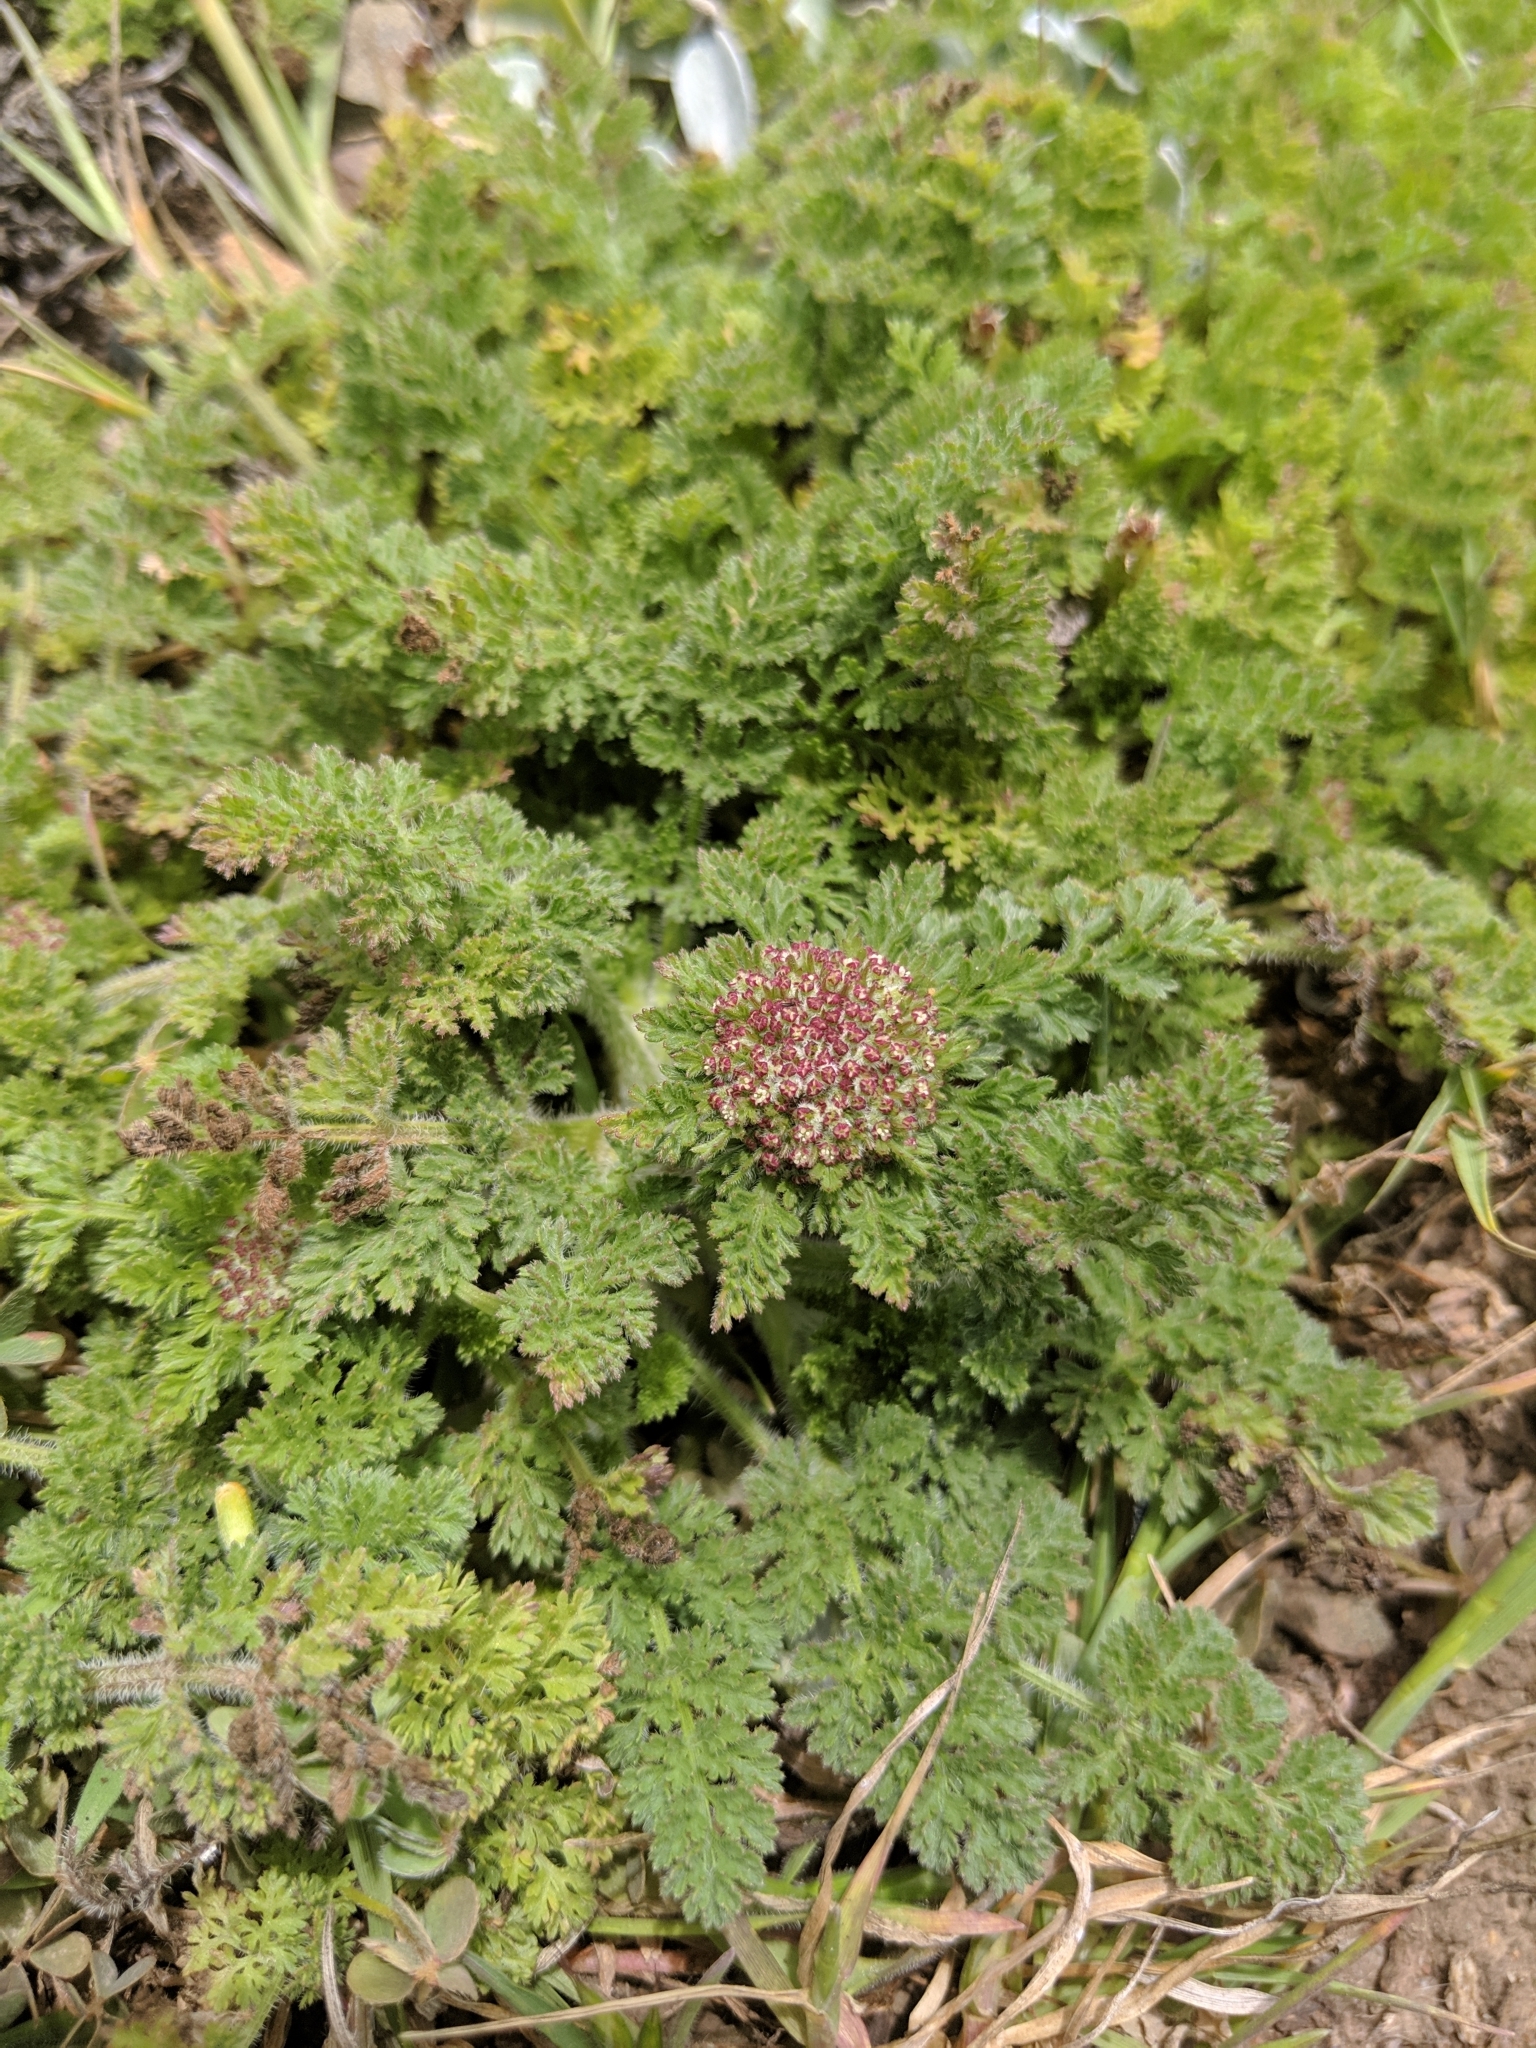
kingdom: Plantae
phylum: Tracheophyta
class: Magnoliopsida
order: Apiales
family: Apiaceae
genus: Daucus
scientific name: Daucus pusillus
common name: Southwest wild carrot
